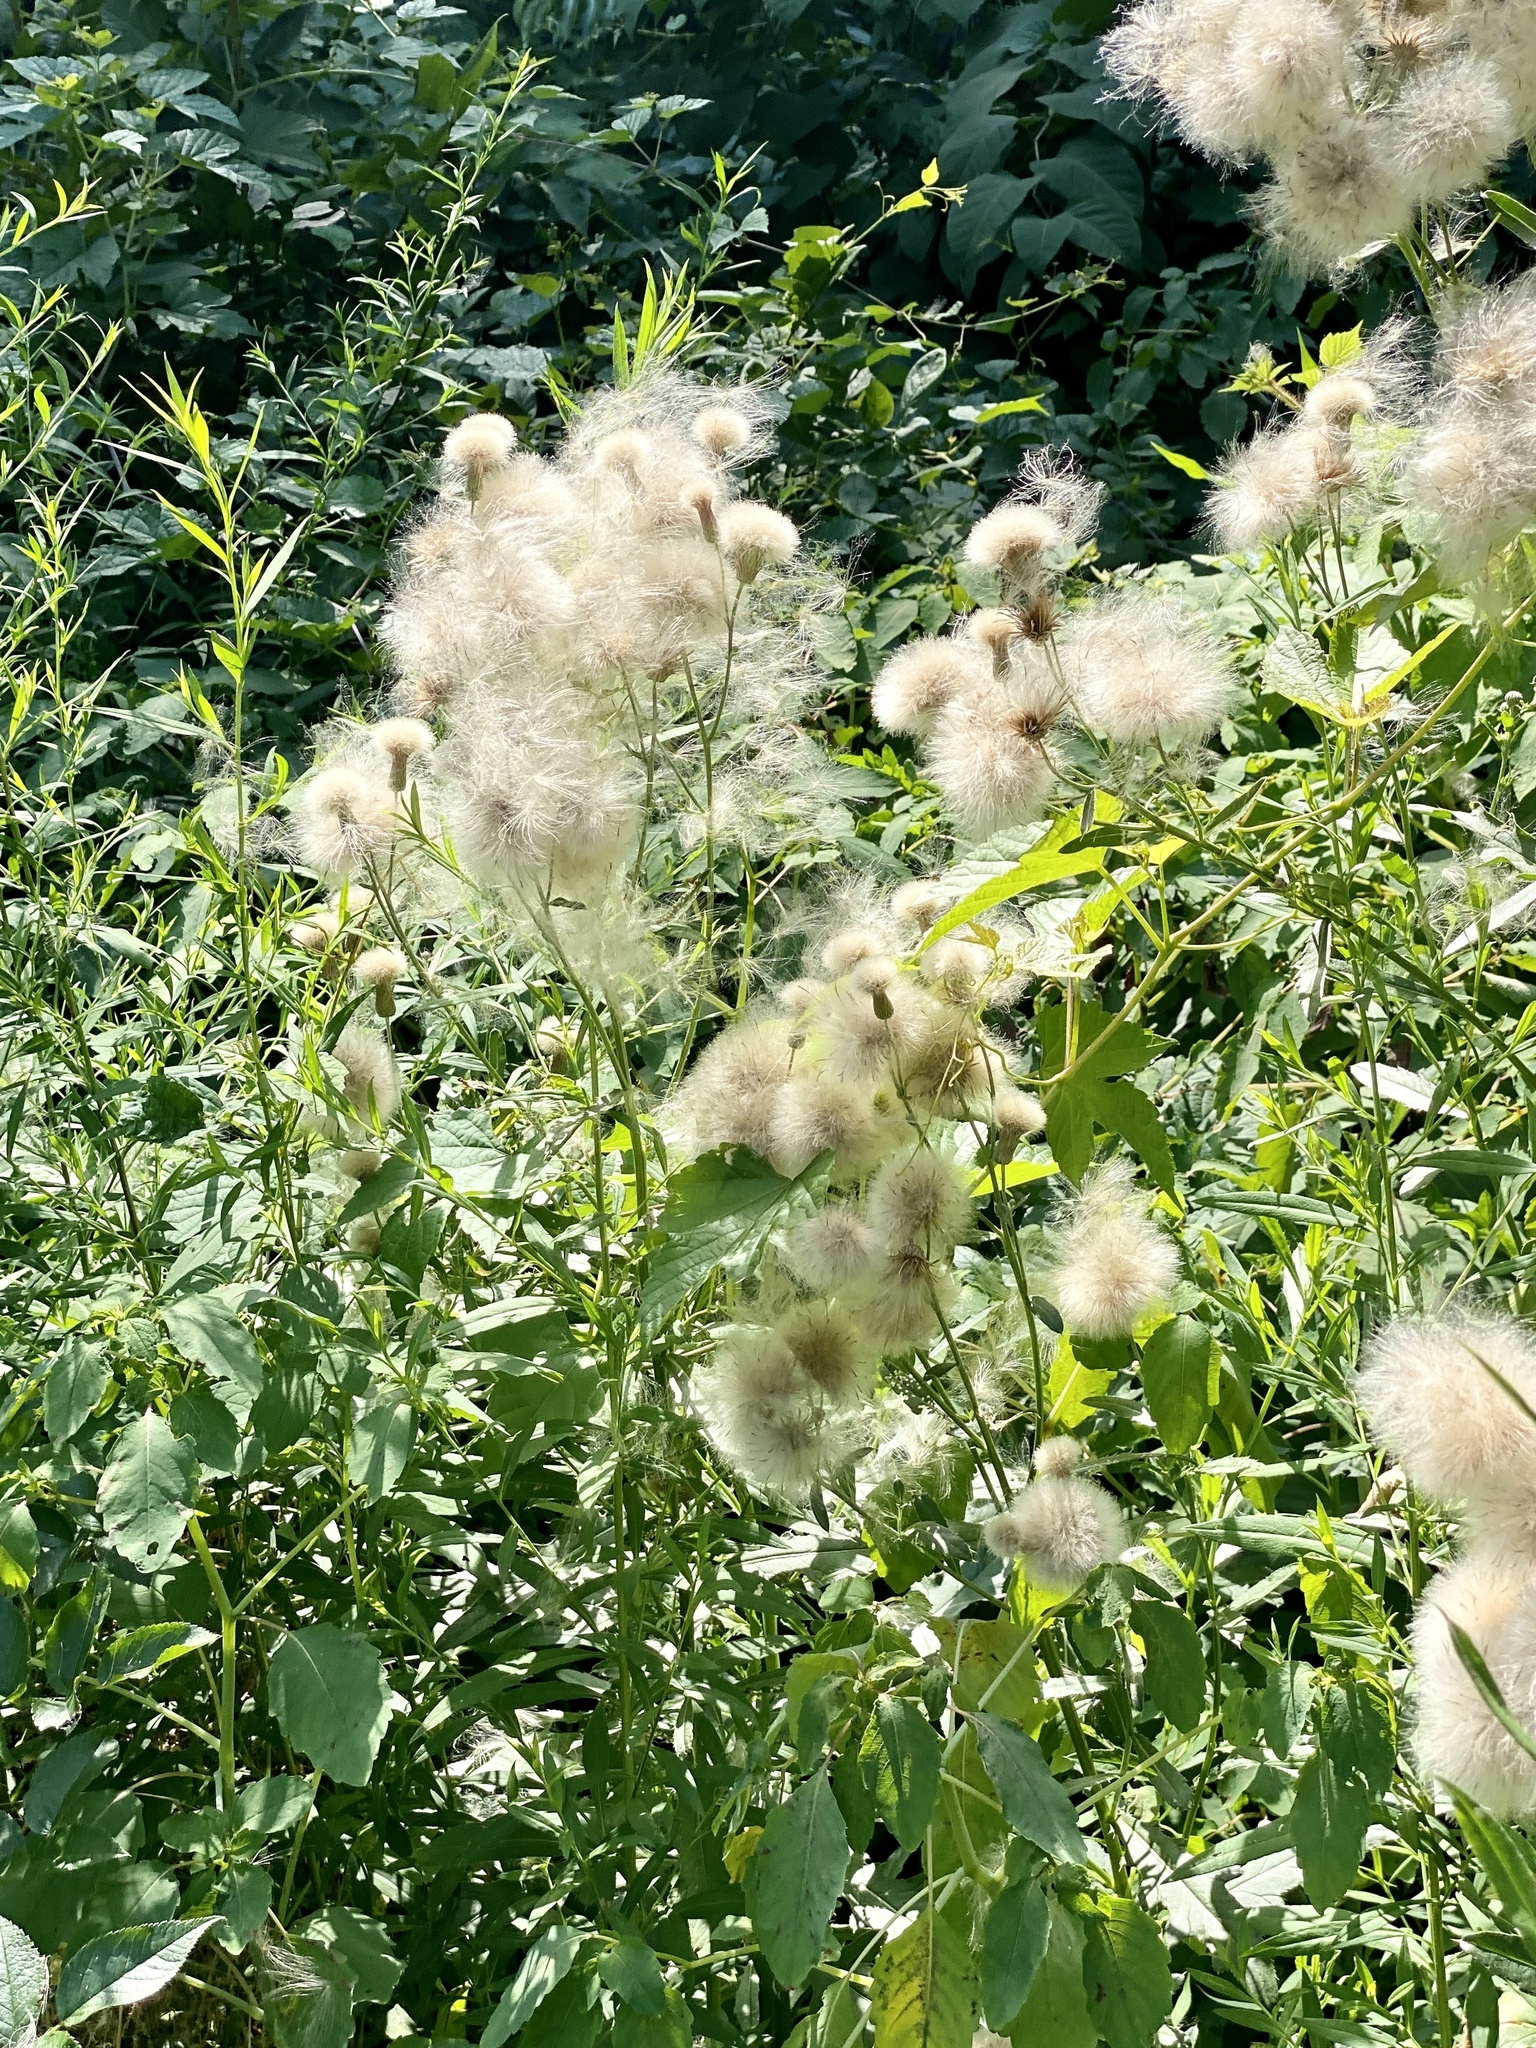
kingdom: Plantae
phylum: Tracheophyta
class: Magnoliopsida
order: Asterales
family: Asteraceae
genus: Cirsium
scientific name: Cirsium arvense
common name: Creeping thistle
